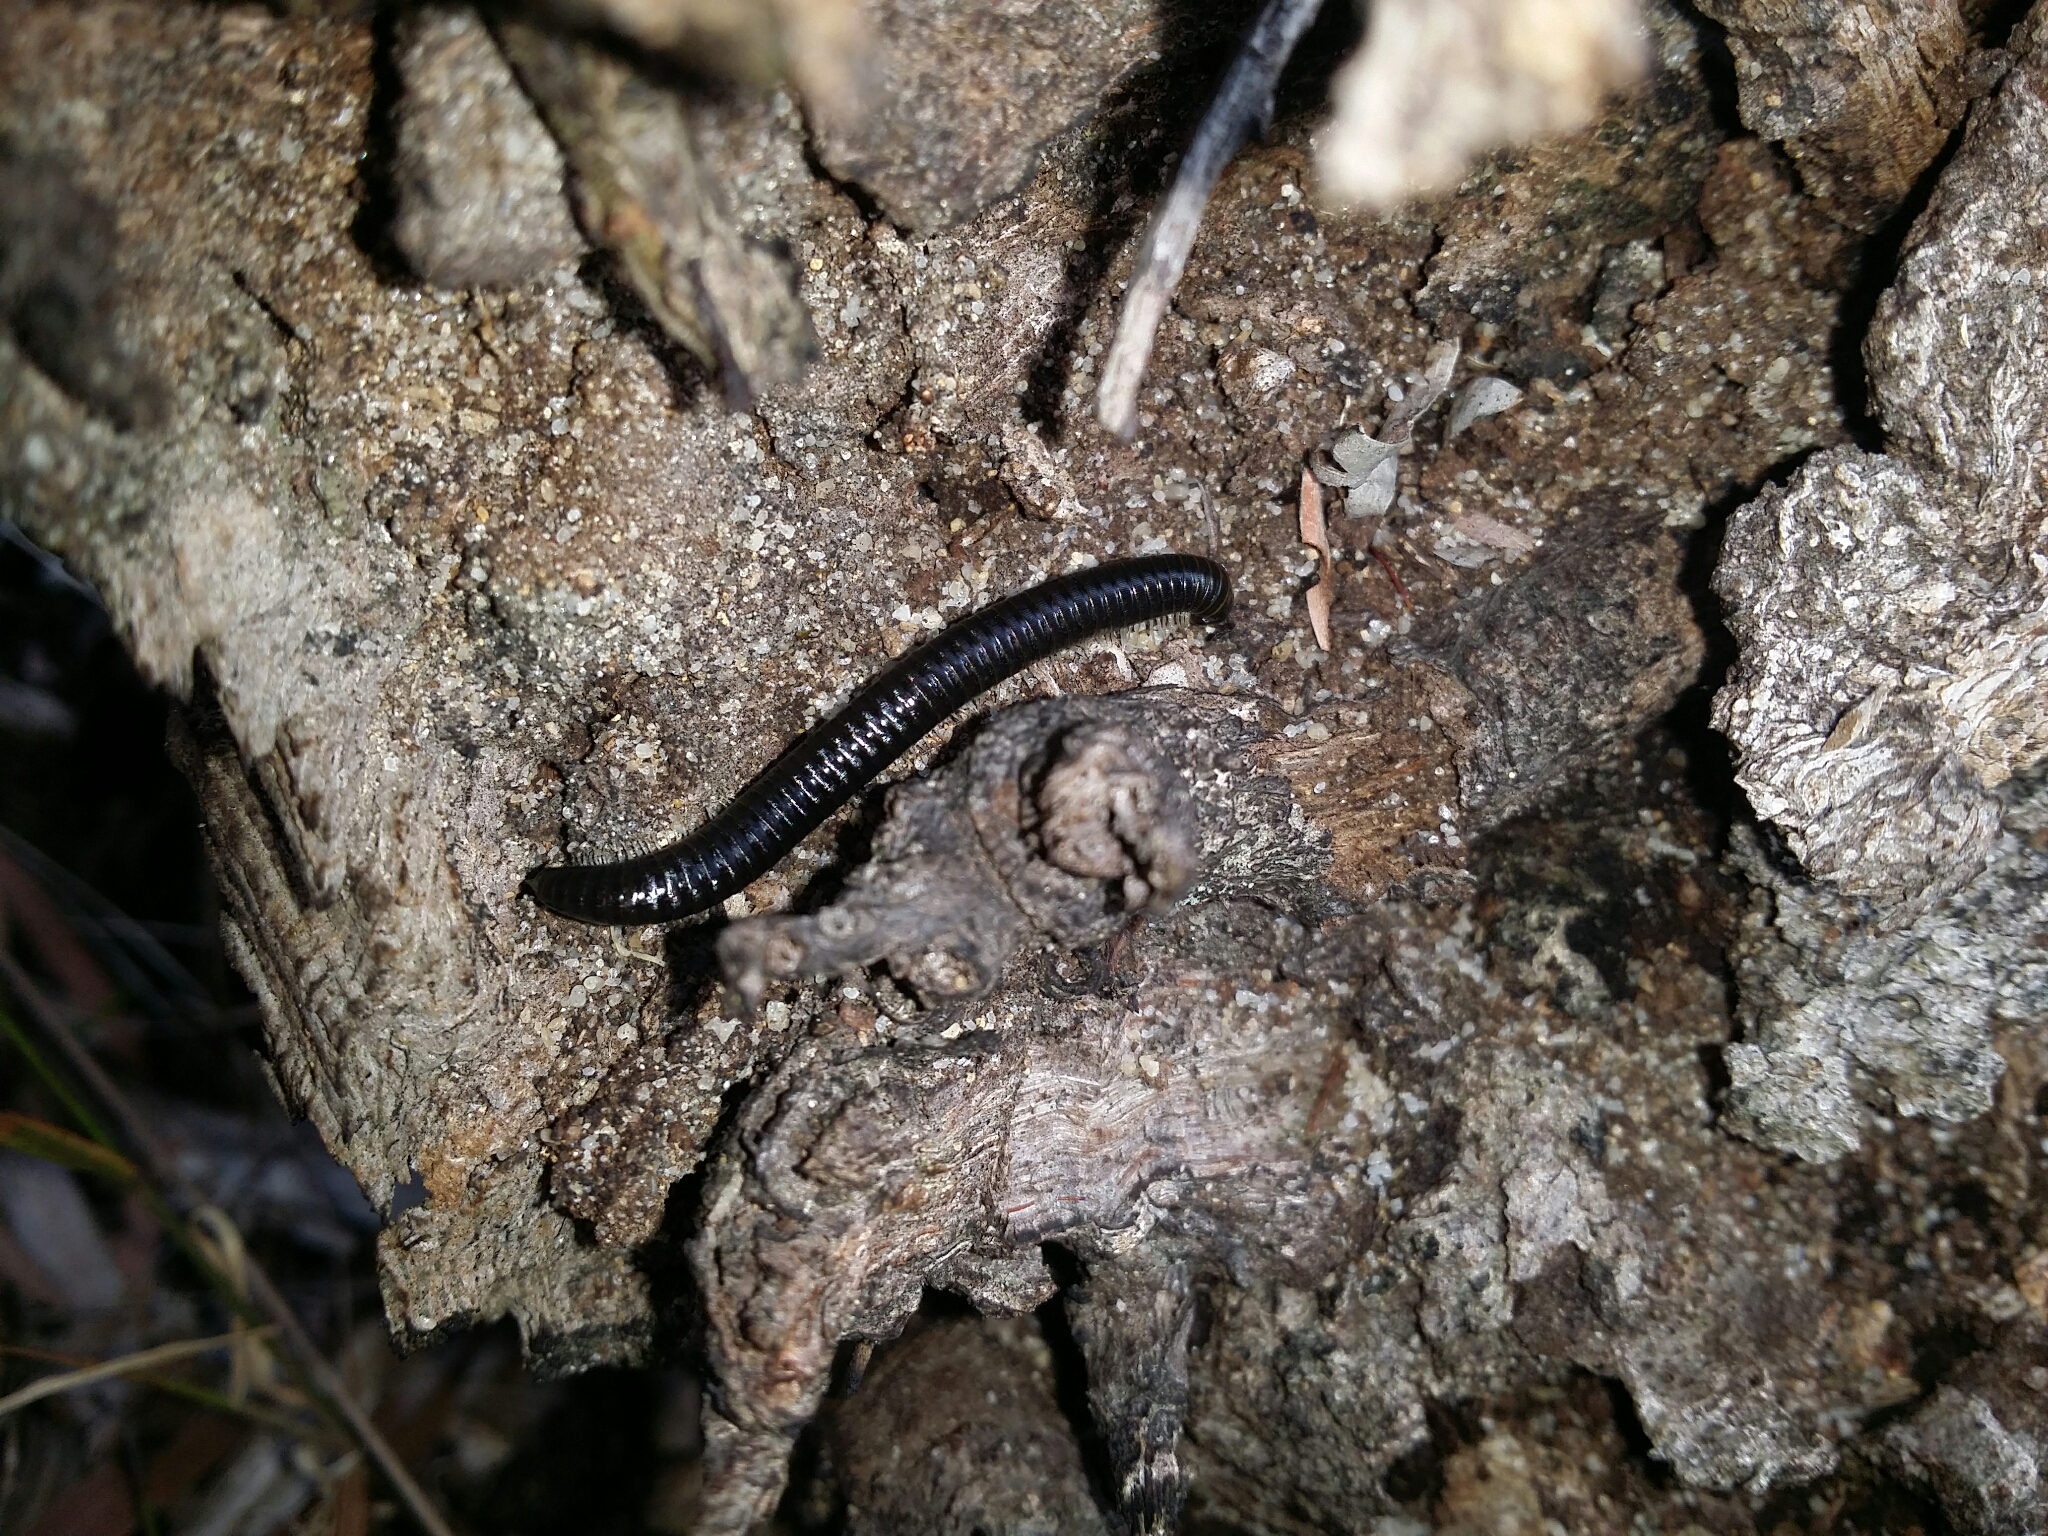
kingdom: Animalia
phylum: Arthropoda
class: Diplopoda
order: Julida
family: Julidae
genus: Ommatoiulus
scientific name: Ommatoiulus moreleti
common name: Portuguese millipede
